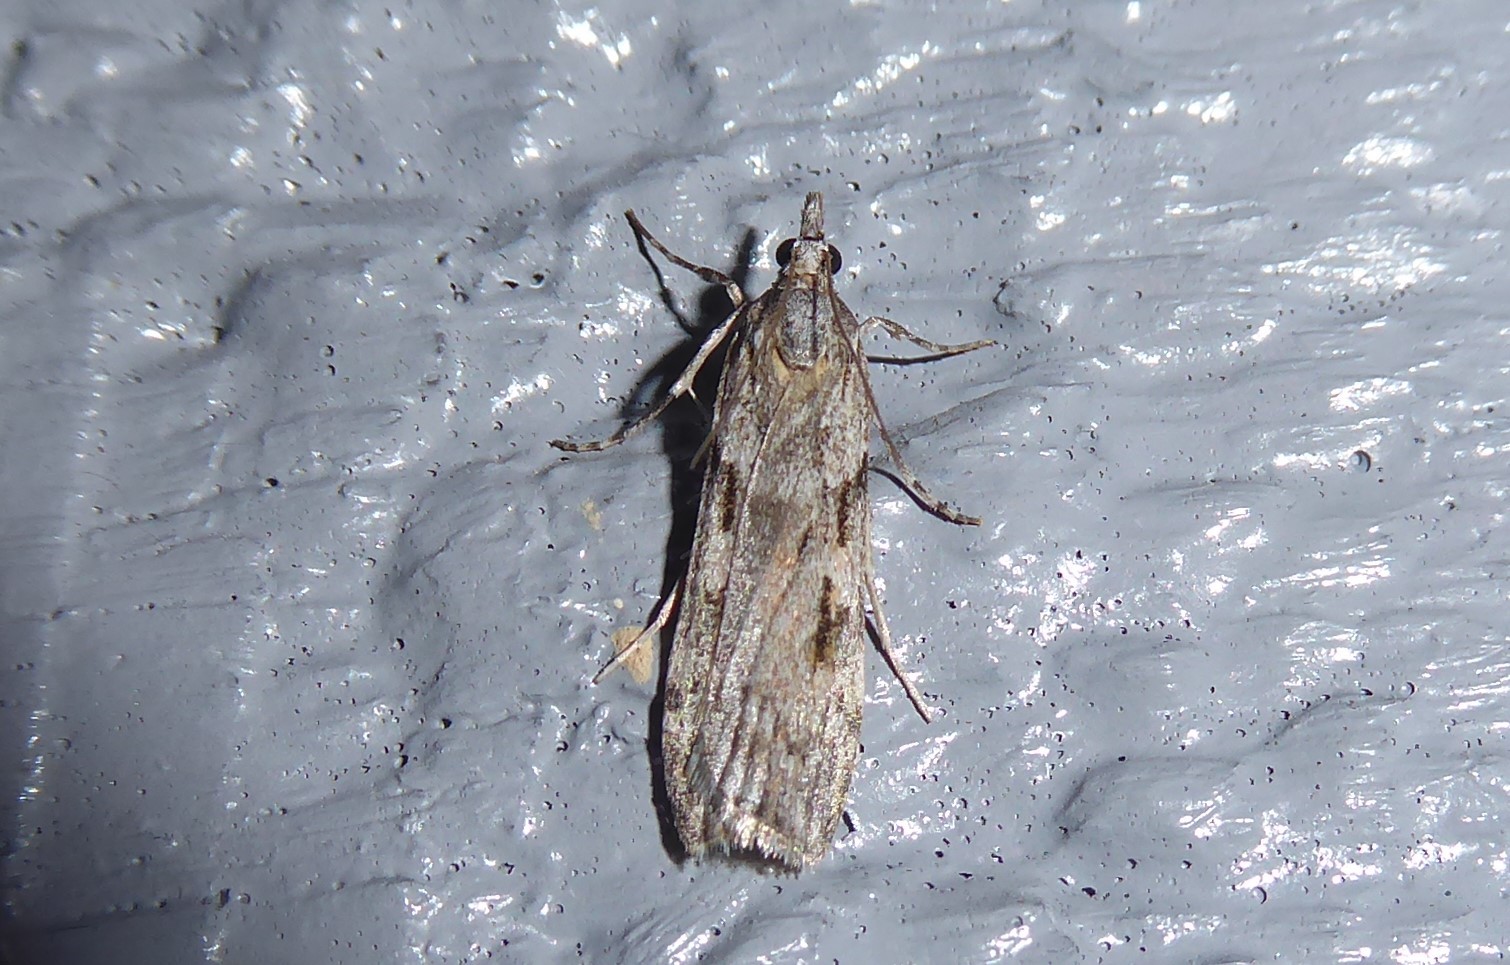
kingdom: Animalia
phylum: Arthropoda
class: Insecta
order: Lepidoptera
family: Crambidae
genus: Scoparia
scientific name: Scoparia halopis
